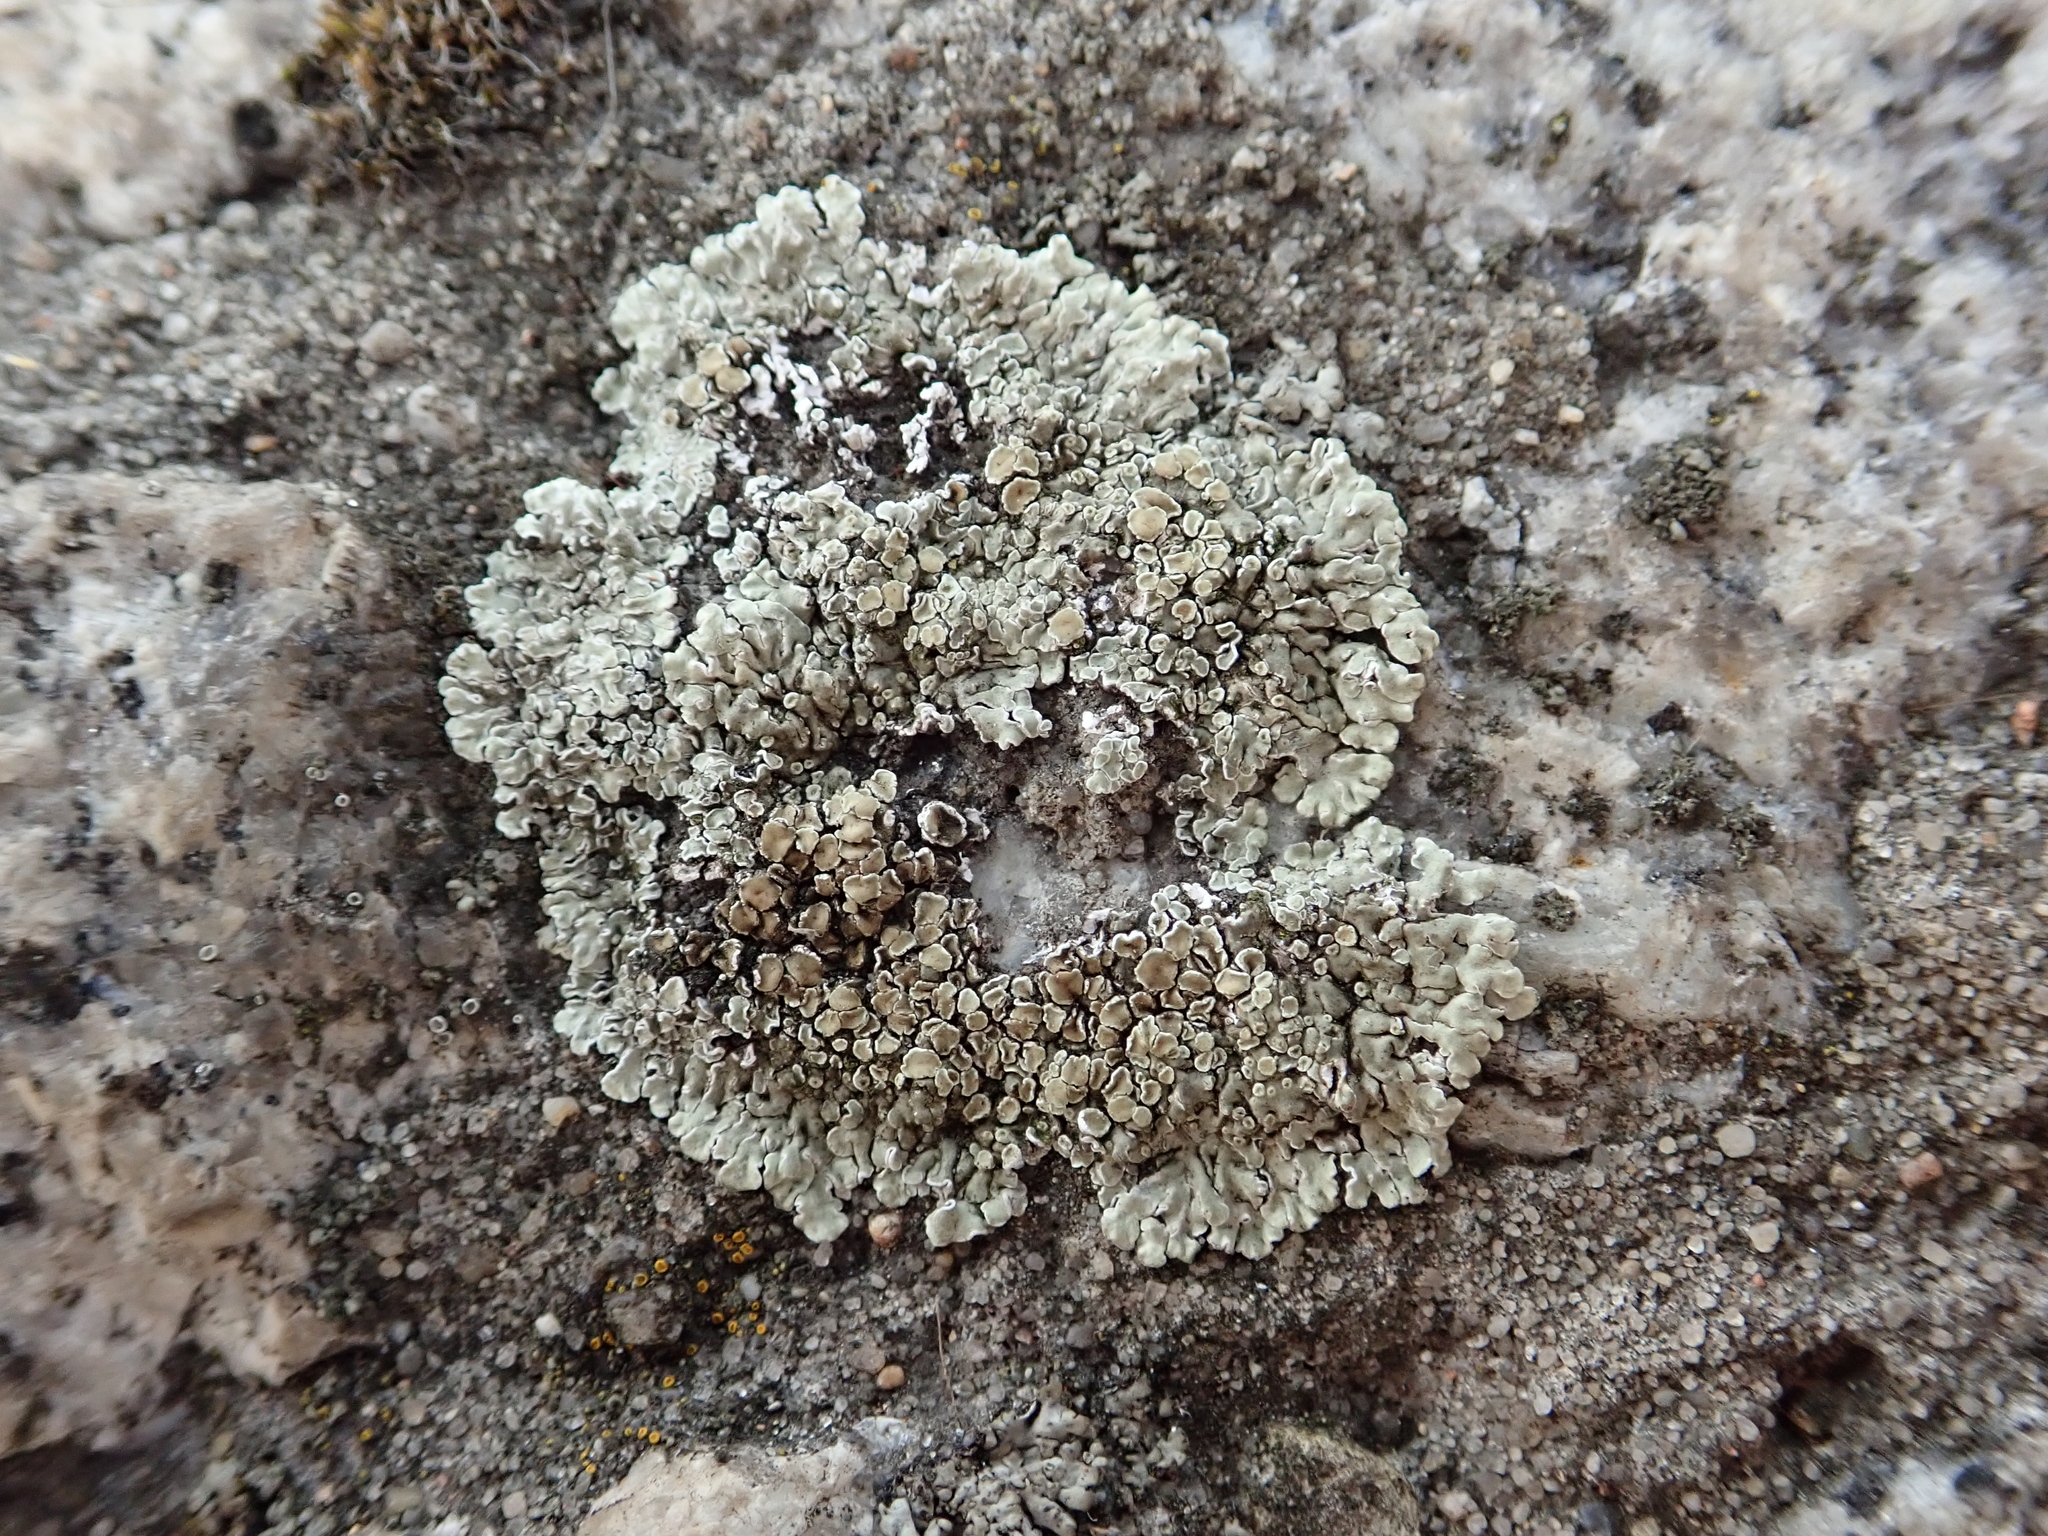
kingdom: Fungi
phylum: Ascomycota
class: Lecanoromycetes
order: Lecanorales
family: Lecanoraceae
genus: Protoparmeliopsis
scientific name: Protoparmeliopsis muralis
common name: Stonewall rim lichen
